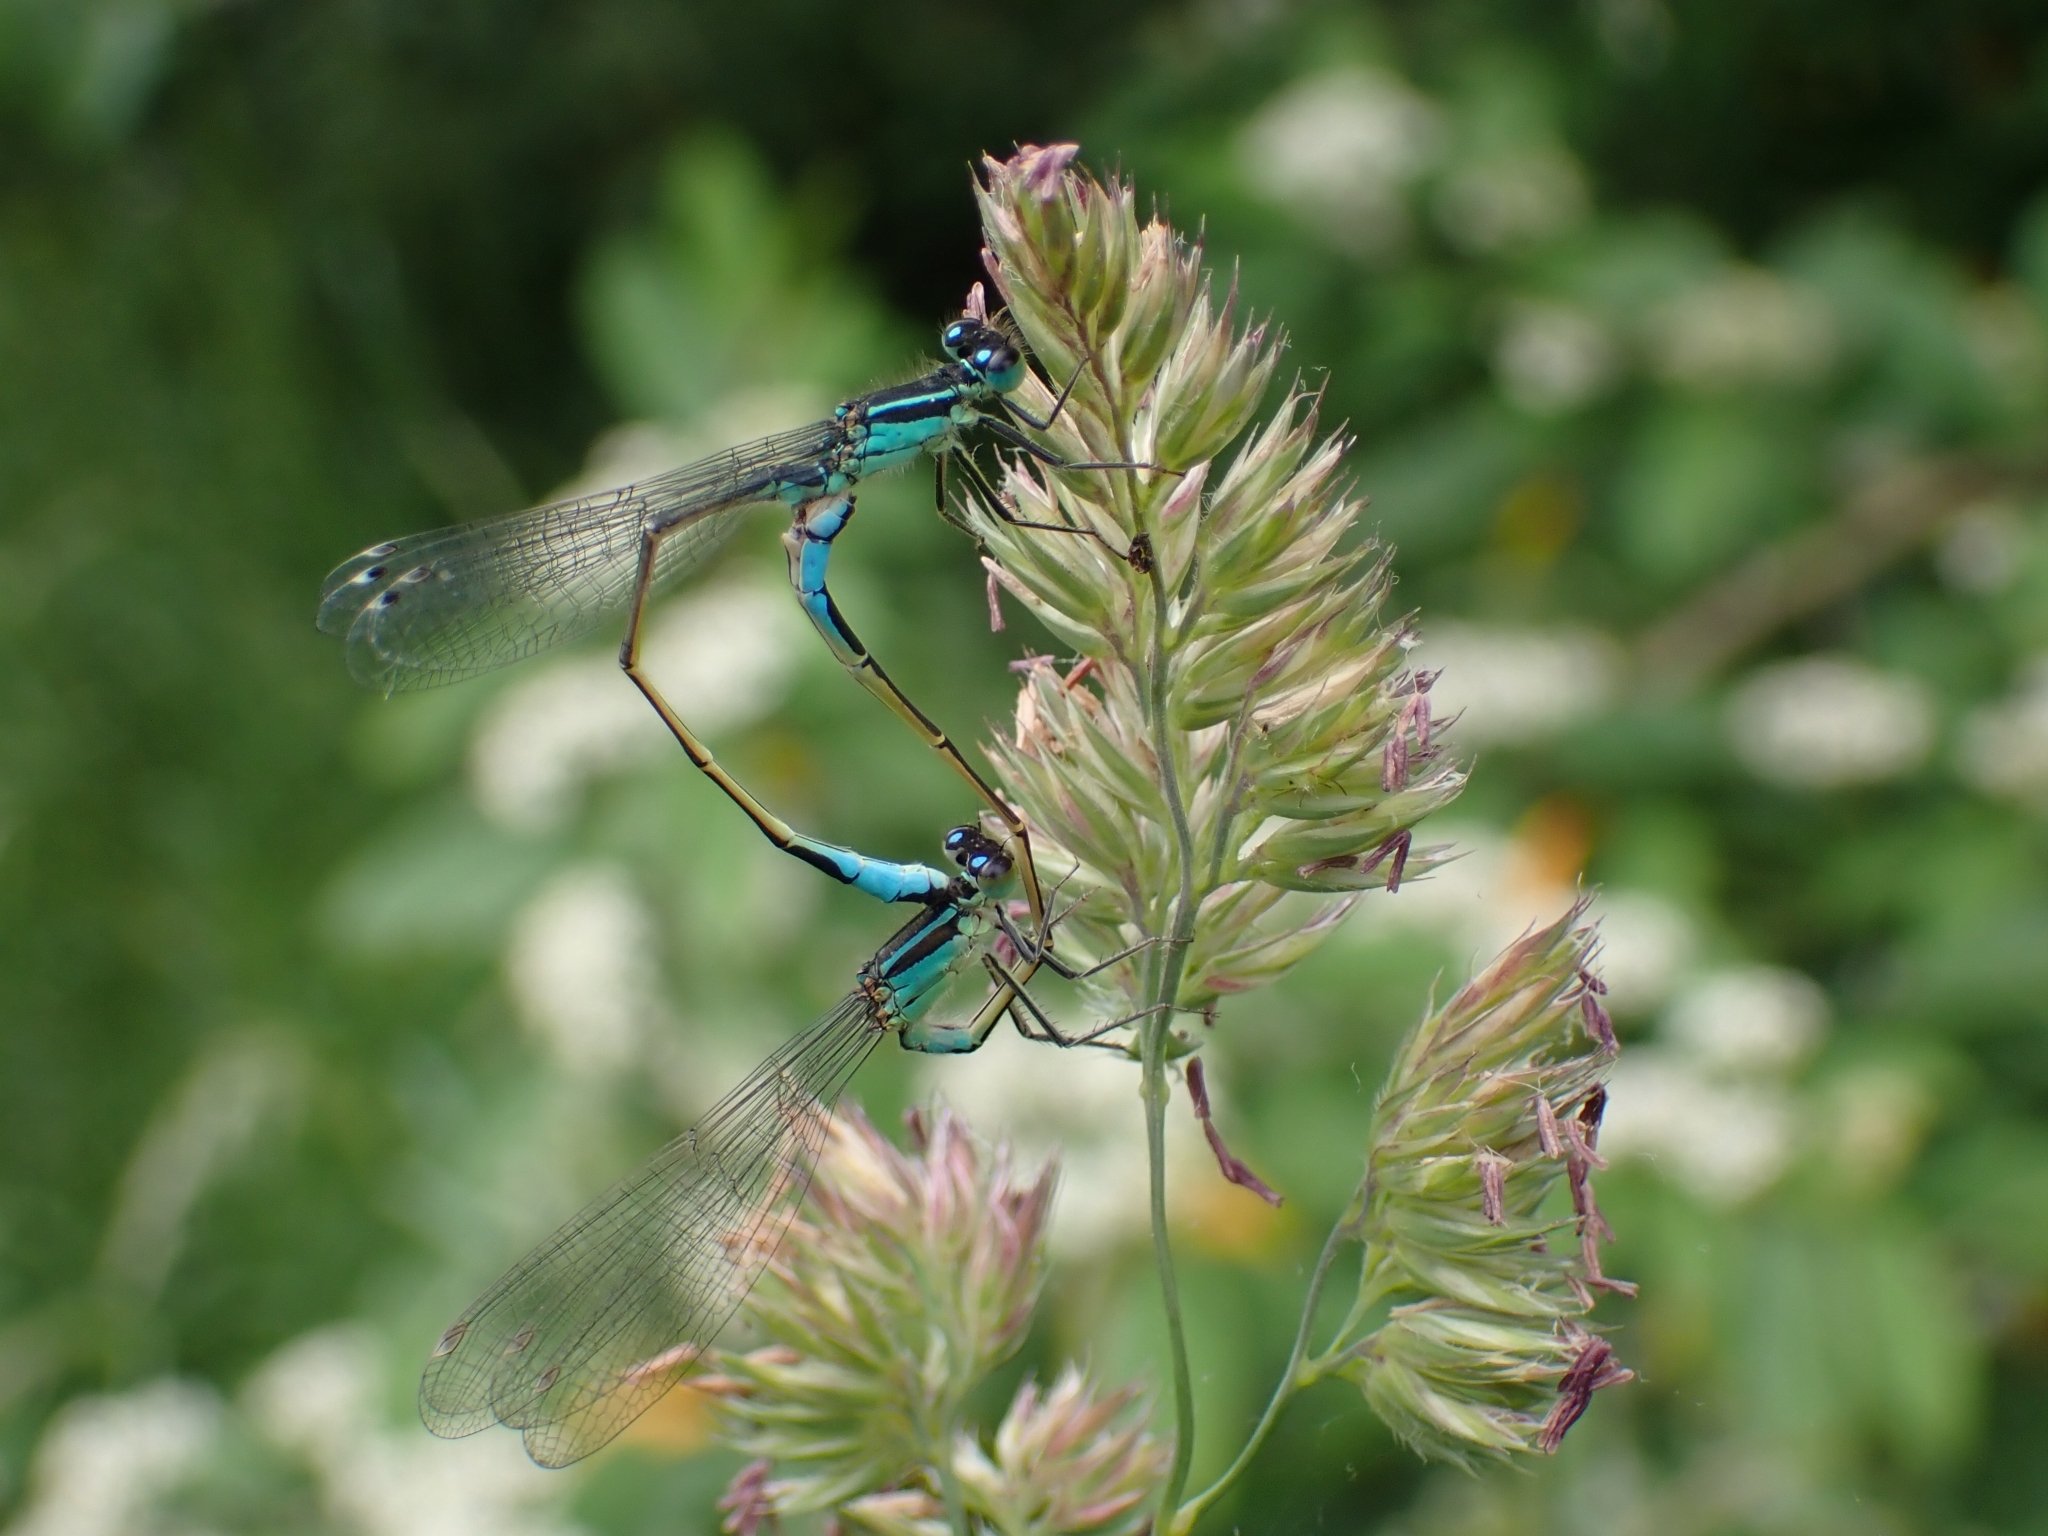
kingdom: Animalia
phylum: Arthropoda
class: Insecta
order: Odonata
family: Coenagrionidae
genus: Ischnura
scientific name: Ischnura elegans
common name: Blue-tailed damselfly
